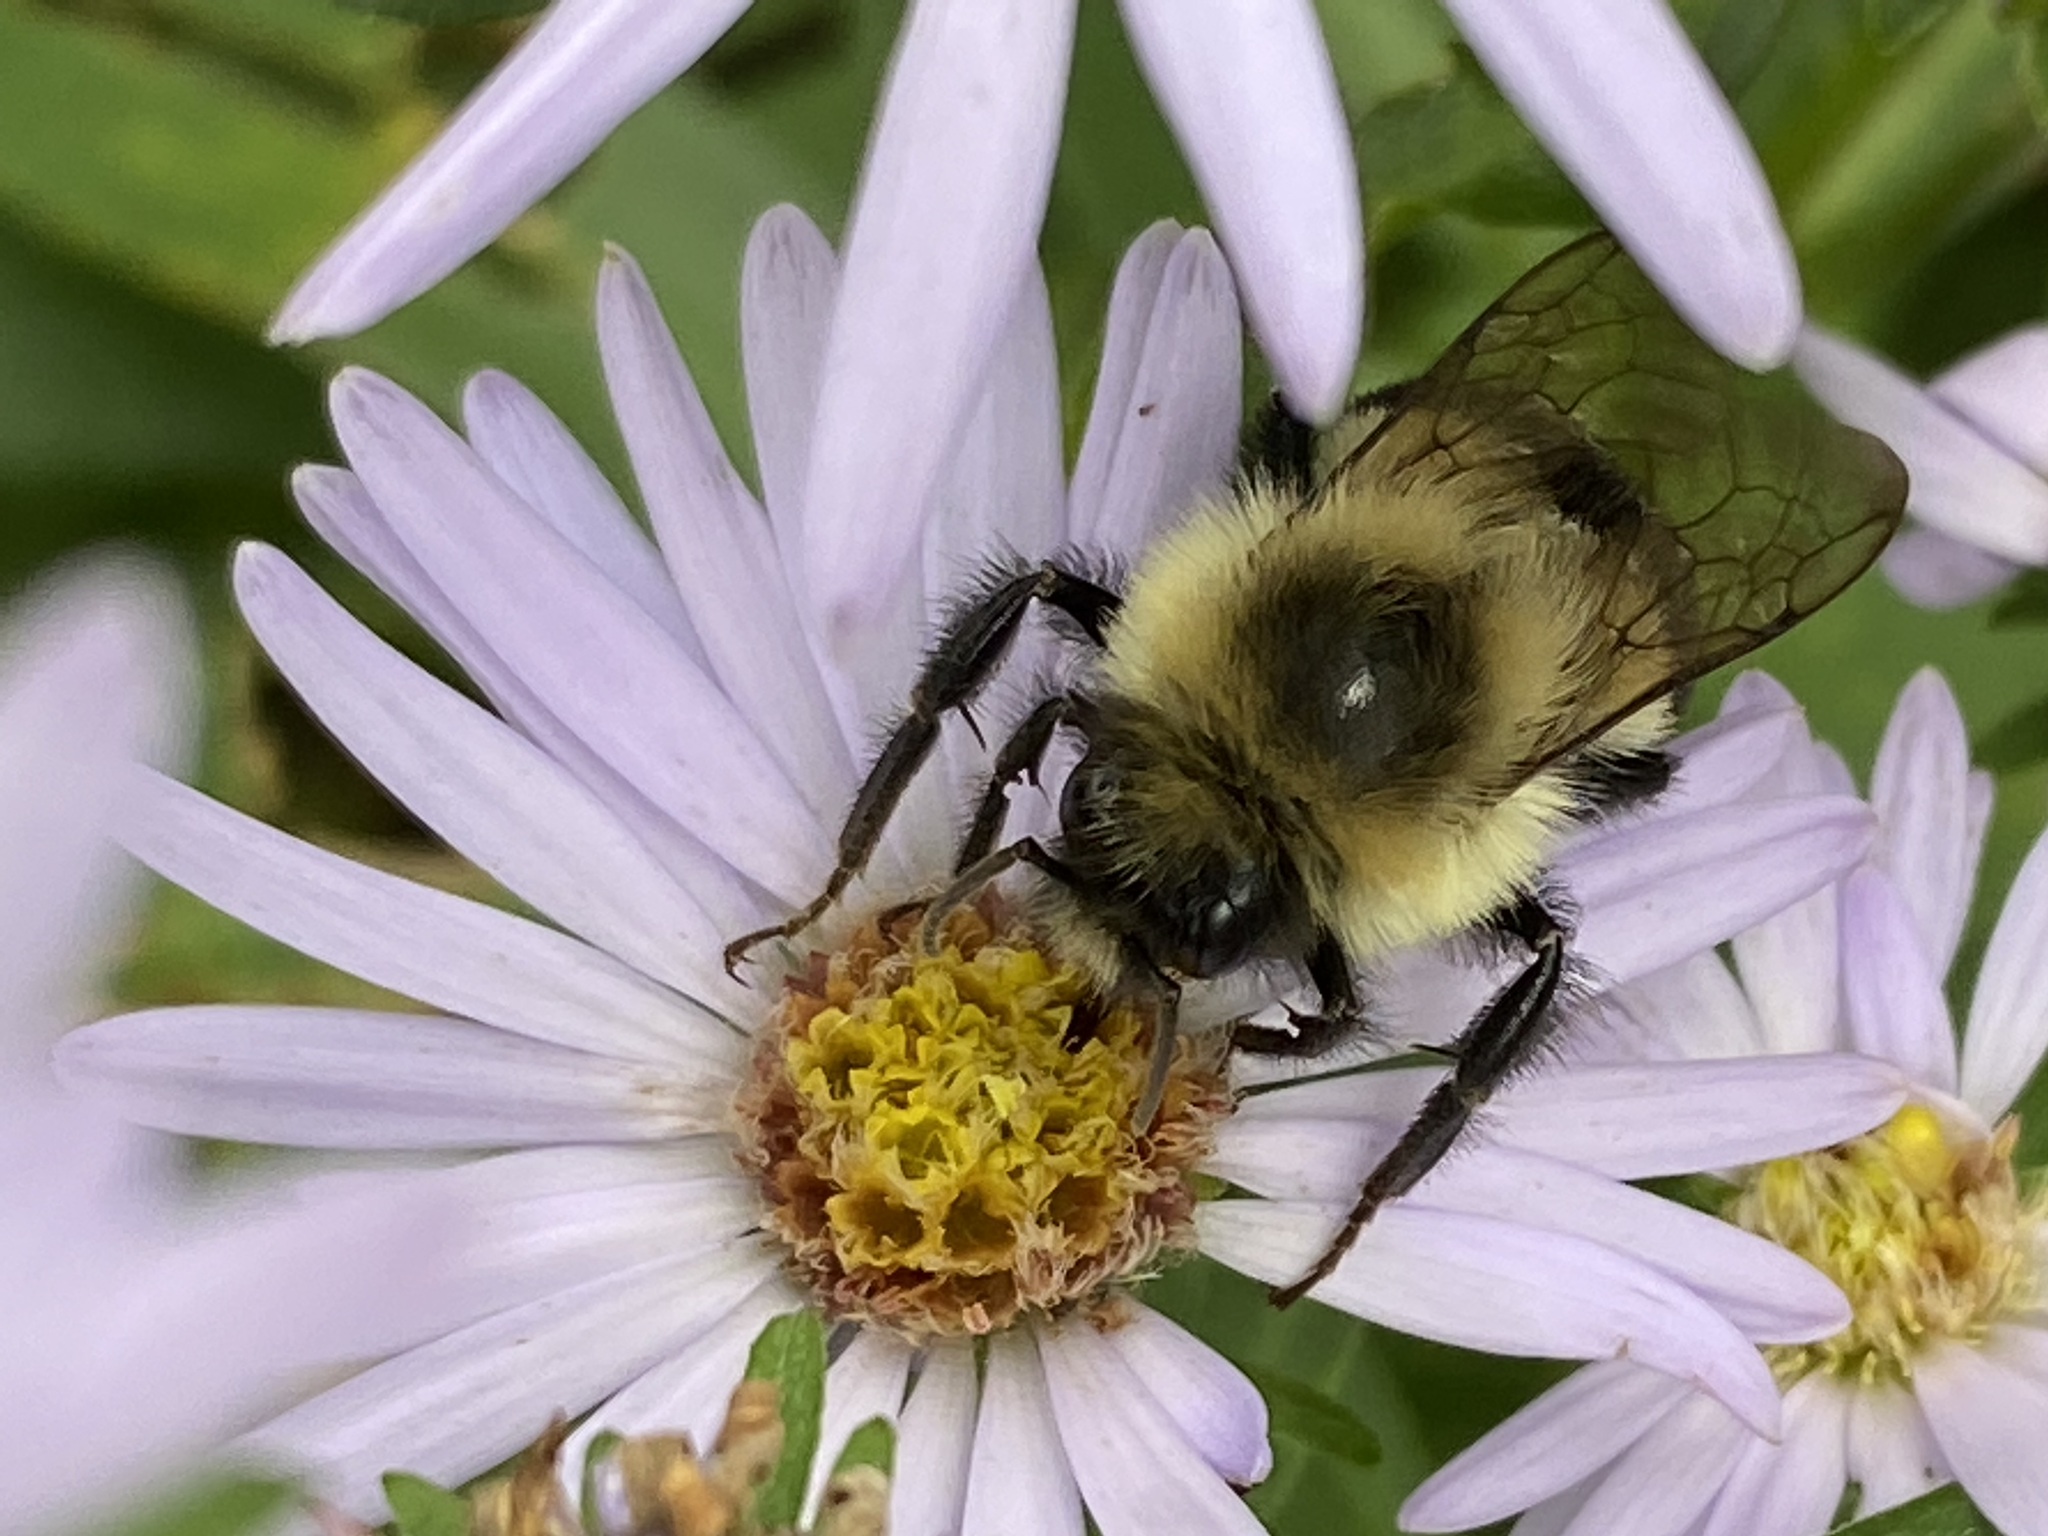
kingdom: Animalia
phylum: Arthropoda
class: Insecta
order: Hymenoptera
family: Apidae
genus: Bombus
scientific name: Bombus impatiens
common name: Common eastern bumble bee
